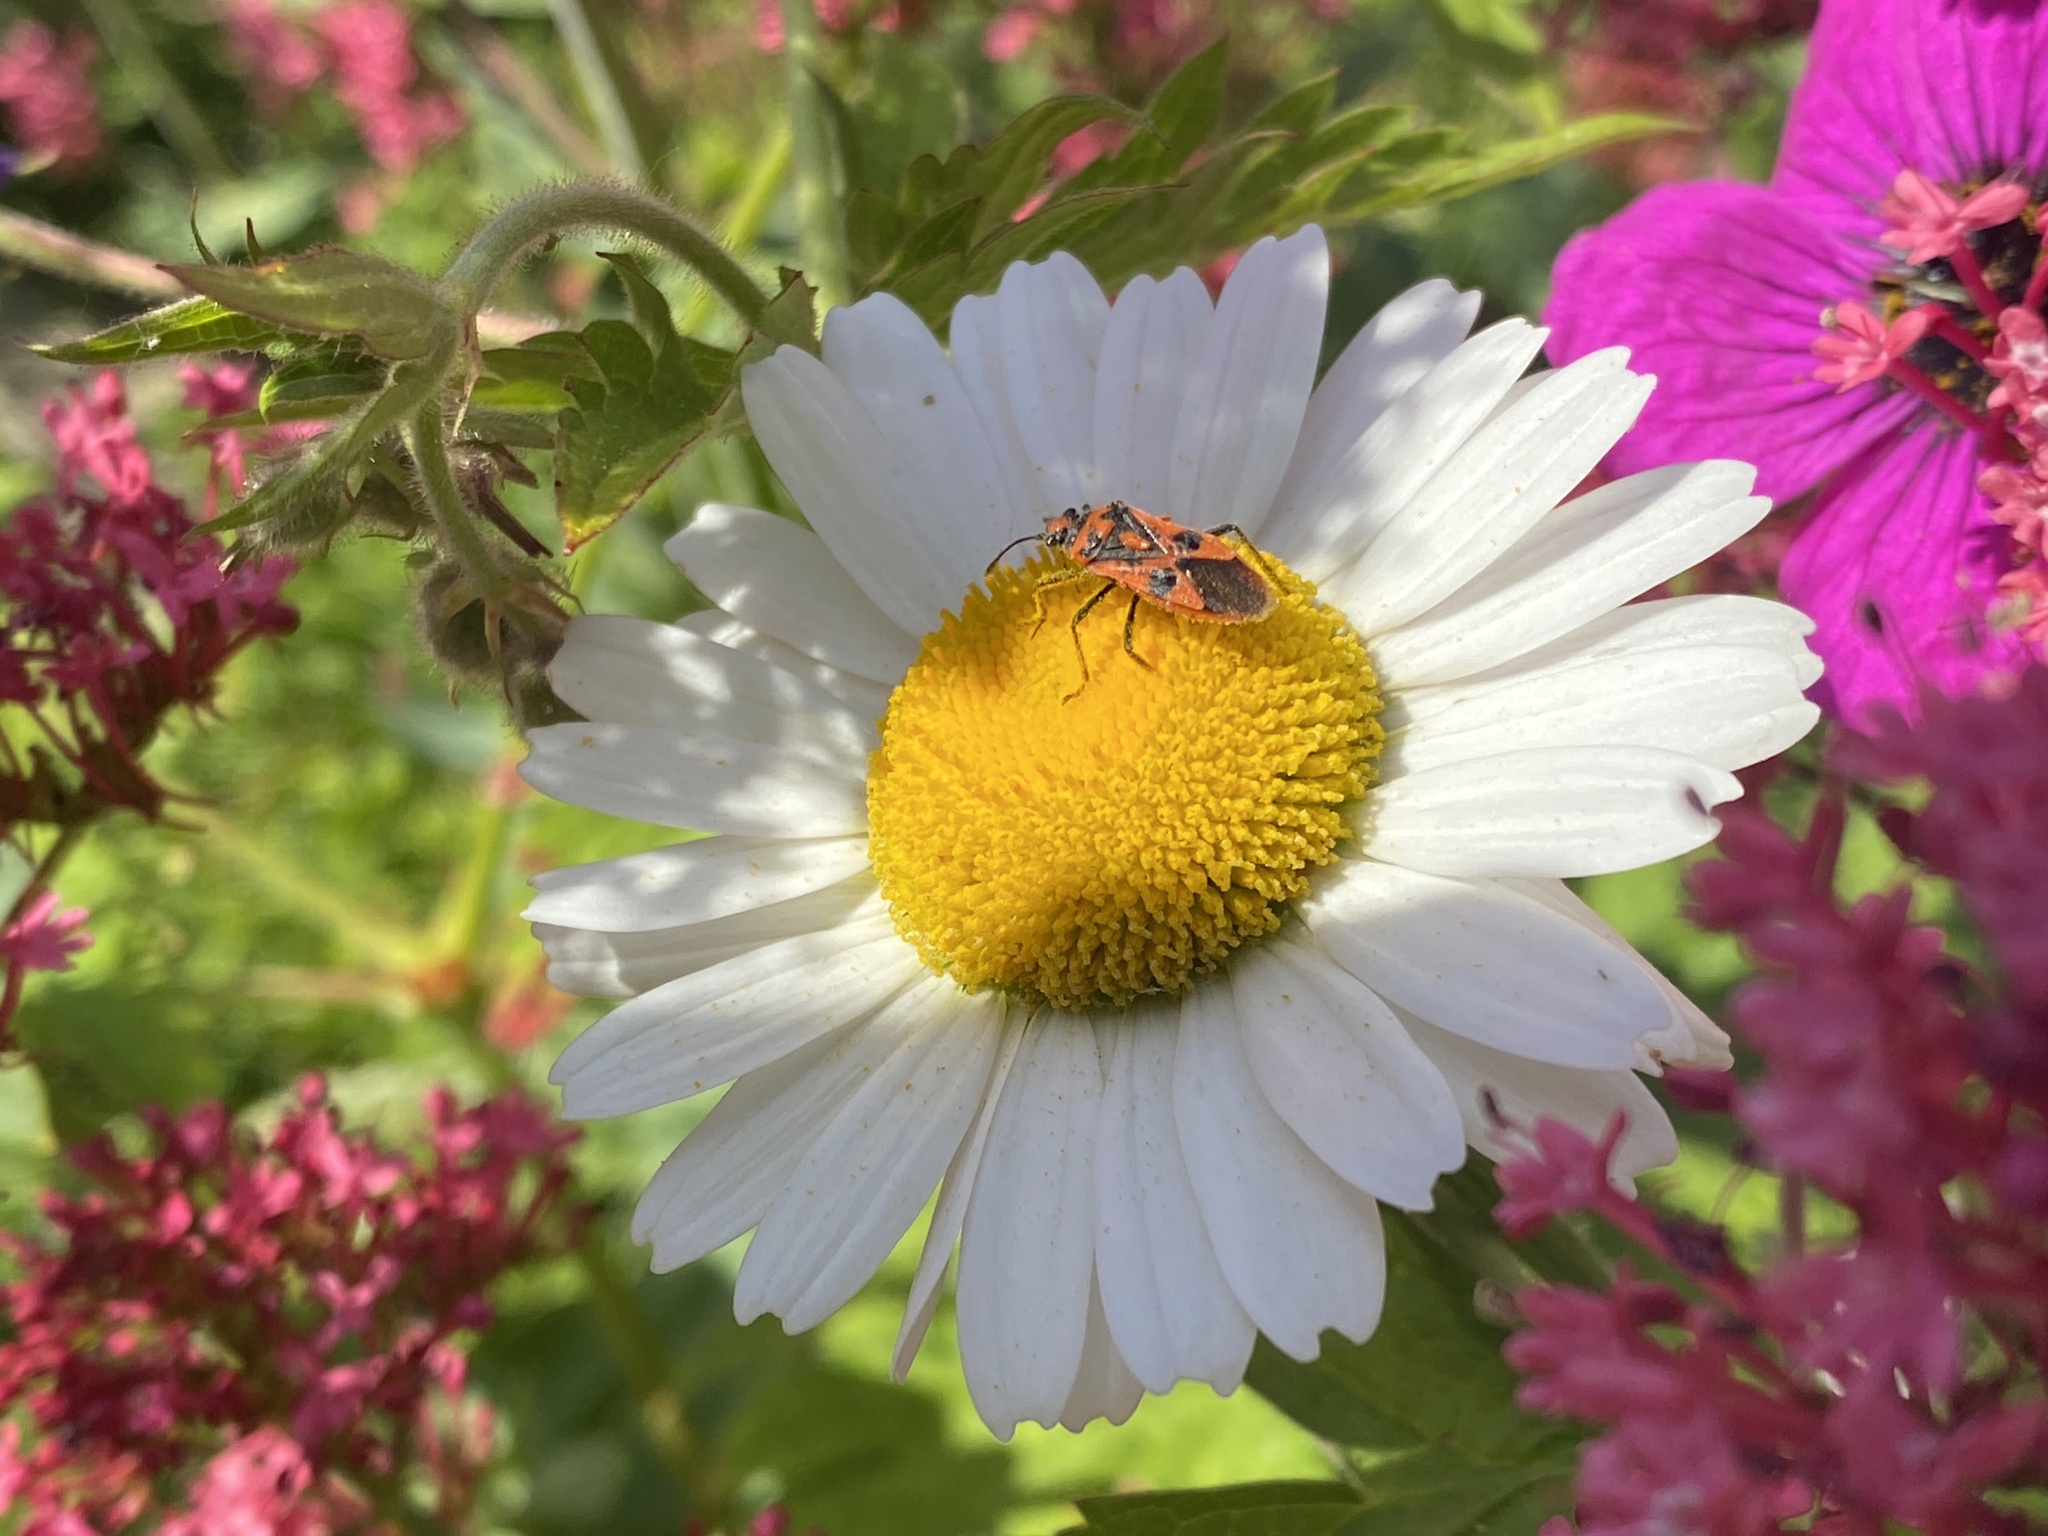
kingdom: Animalia
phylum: Arthropoda
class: Insecta
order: Hemiptera
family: Rhopalidae
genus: Corizus
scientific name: Corizus hyoscyami
